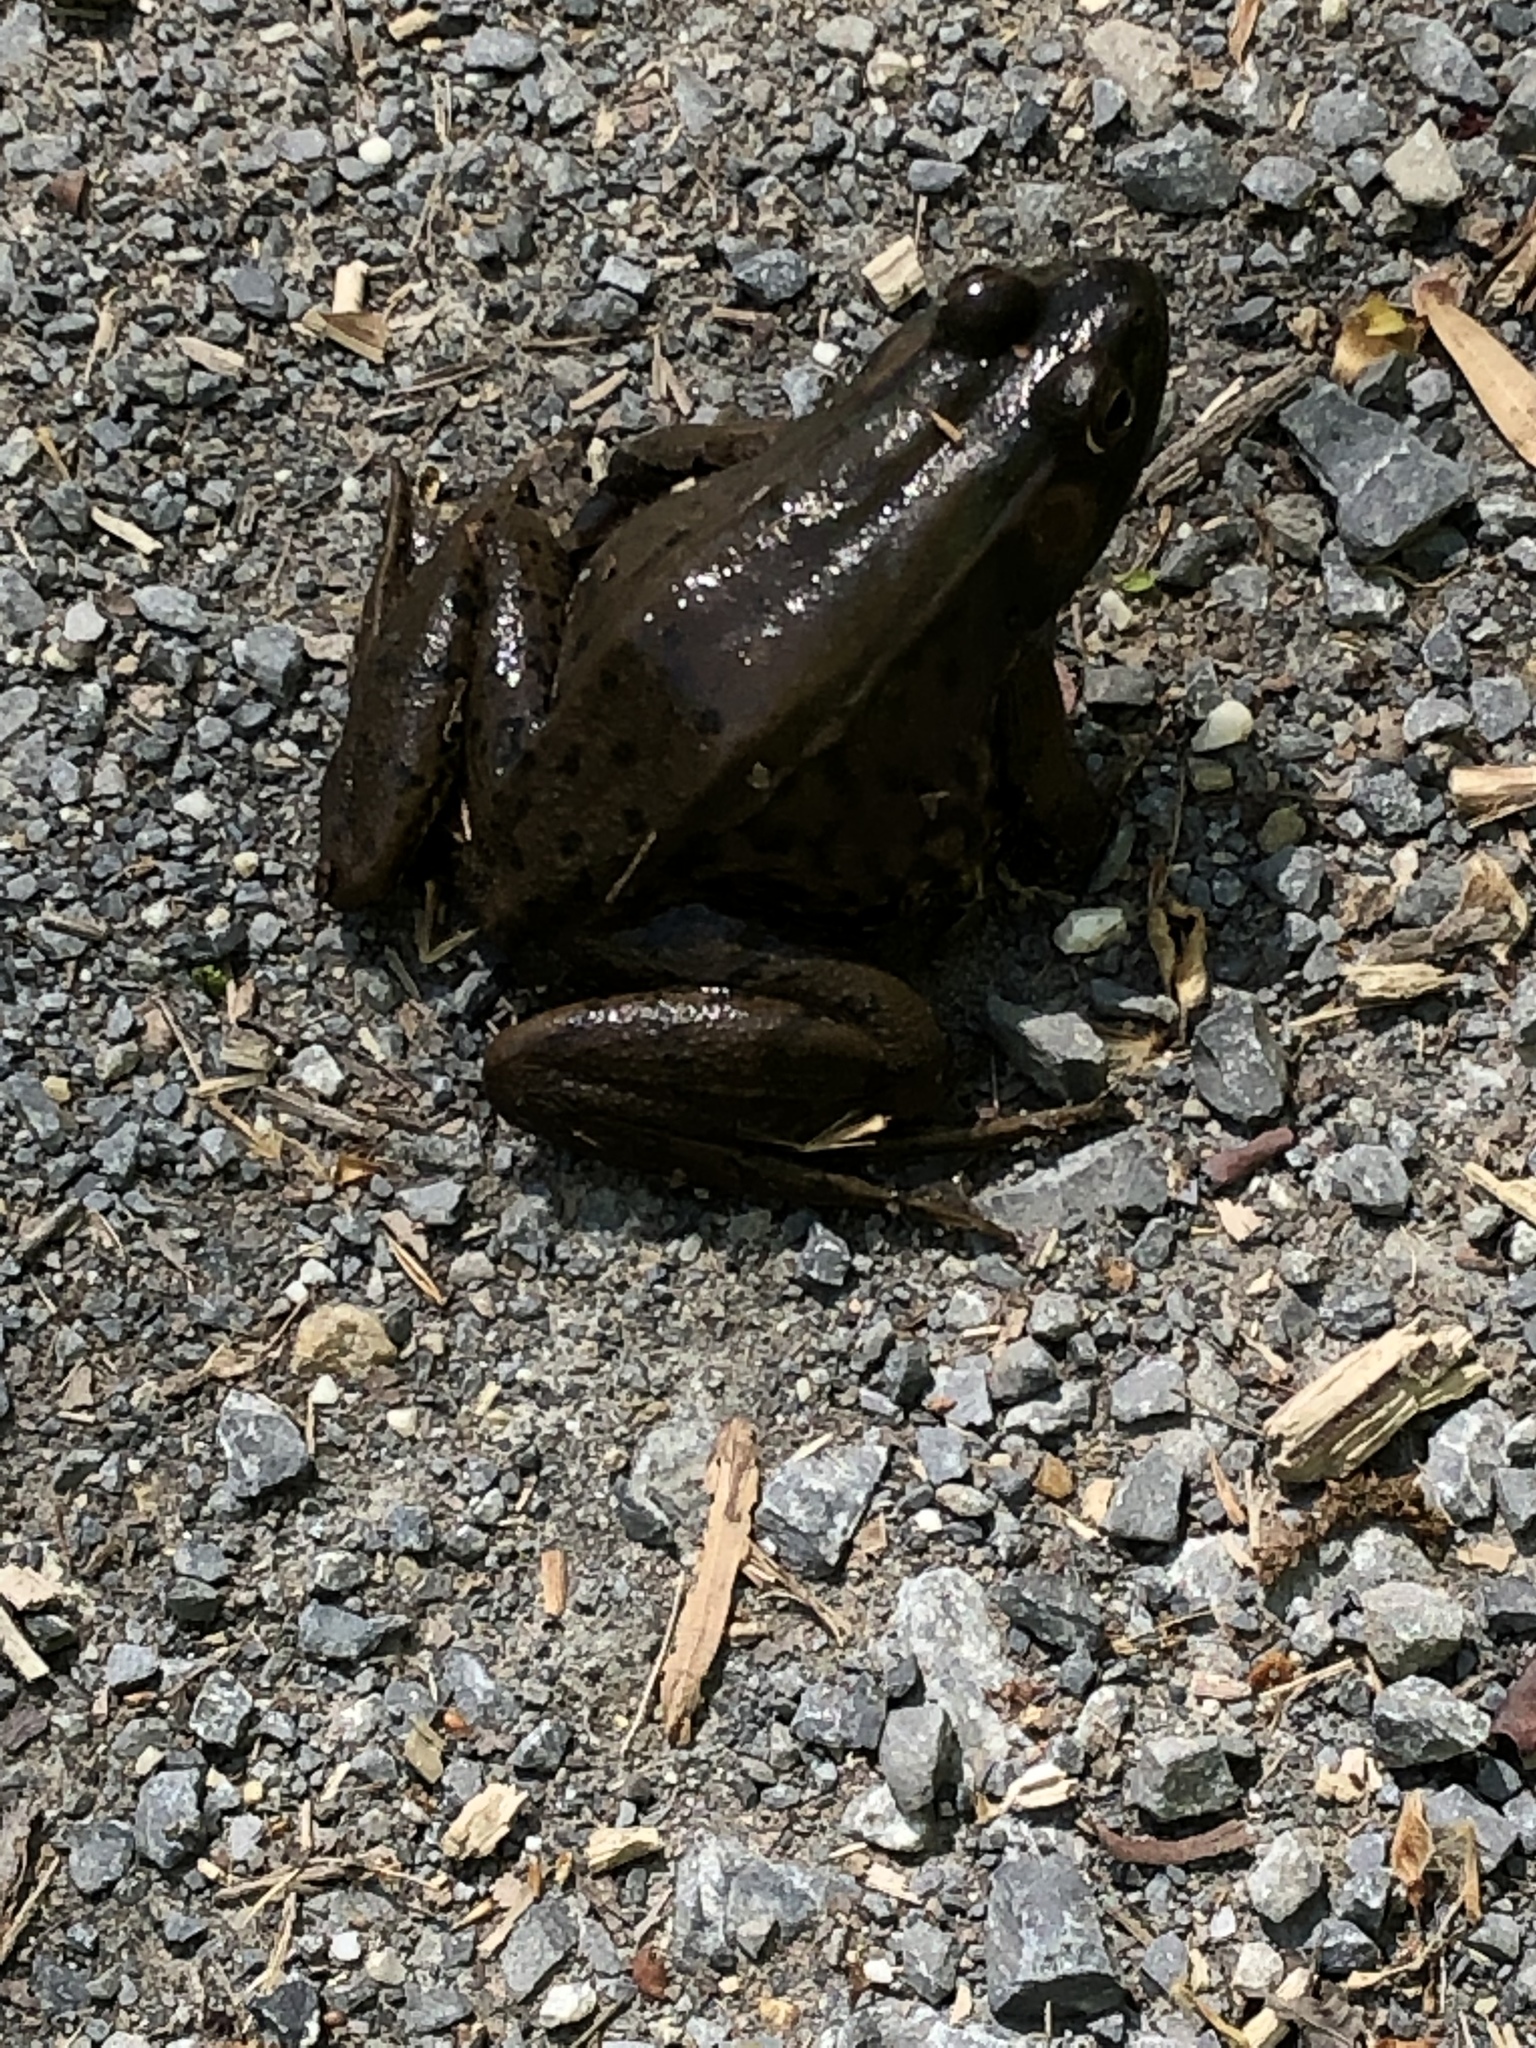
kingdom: Animalia
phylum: Chordata
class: Amphibia
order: Anura
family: Ranidae
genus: Lithobates
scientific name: Lithobates clamitans
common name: Green frog
